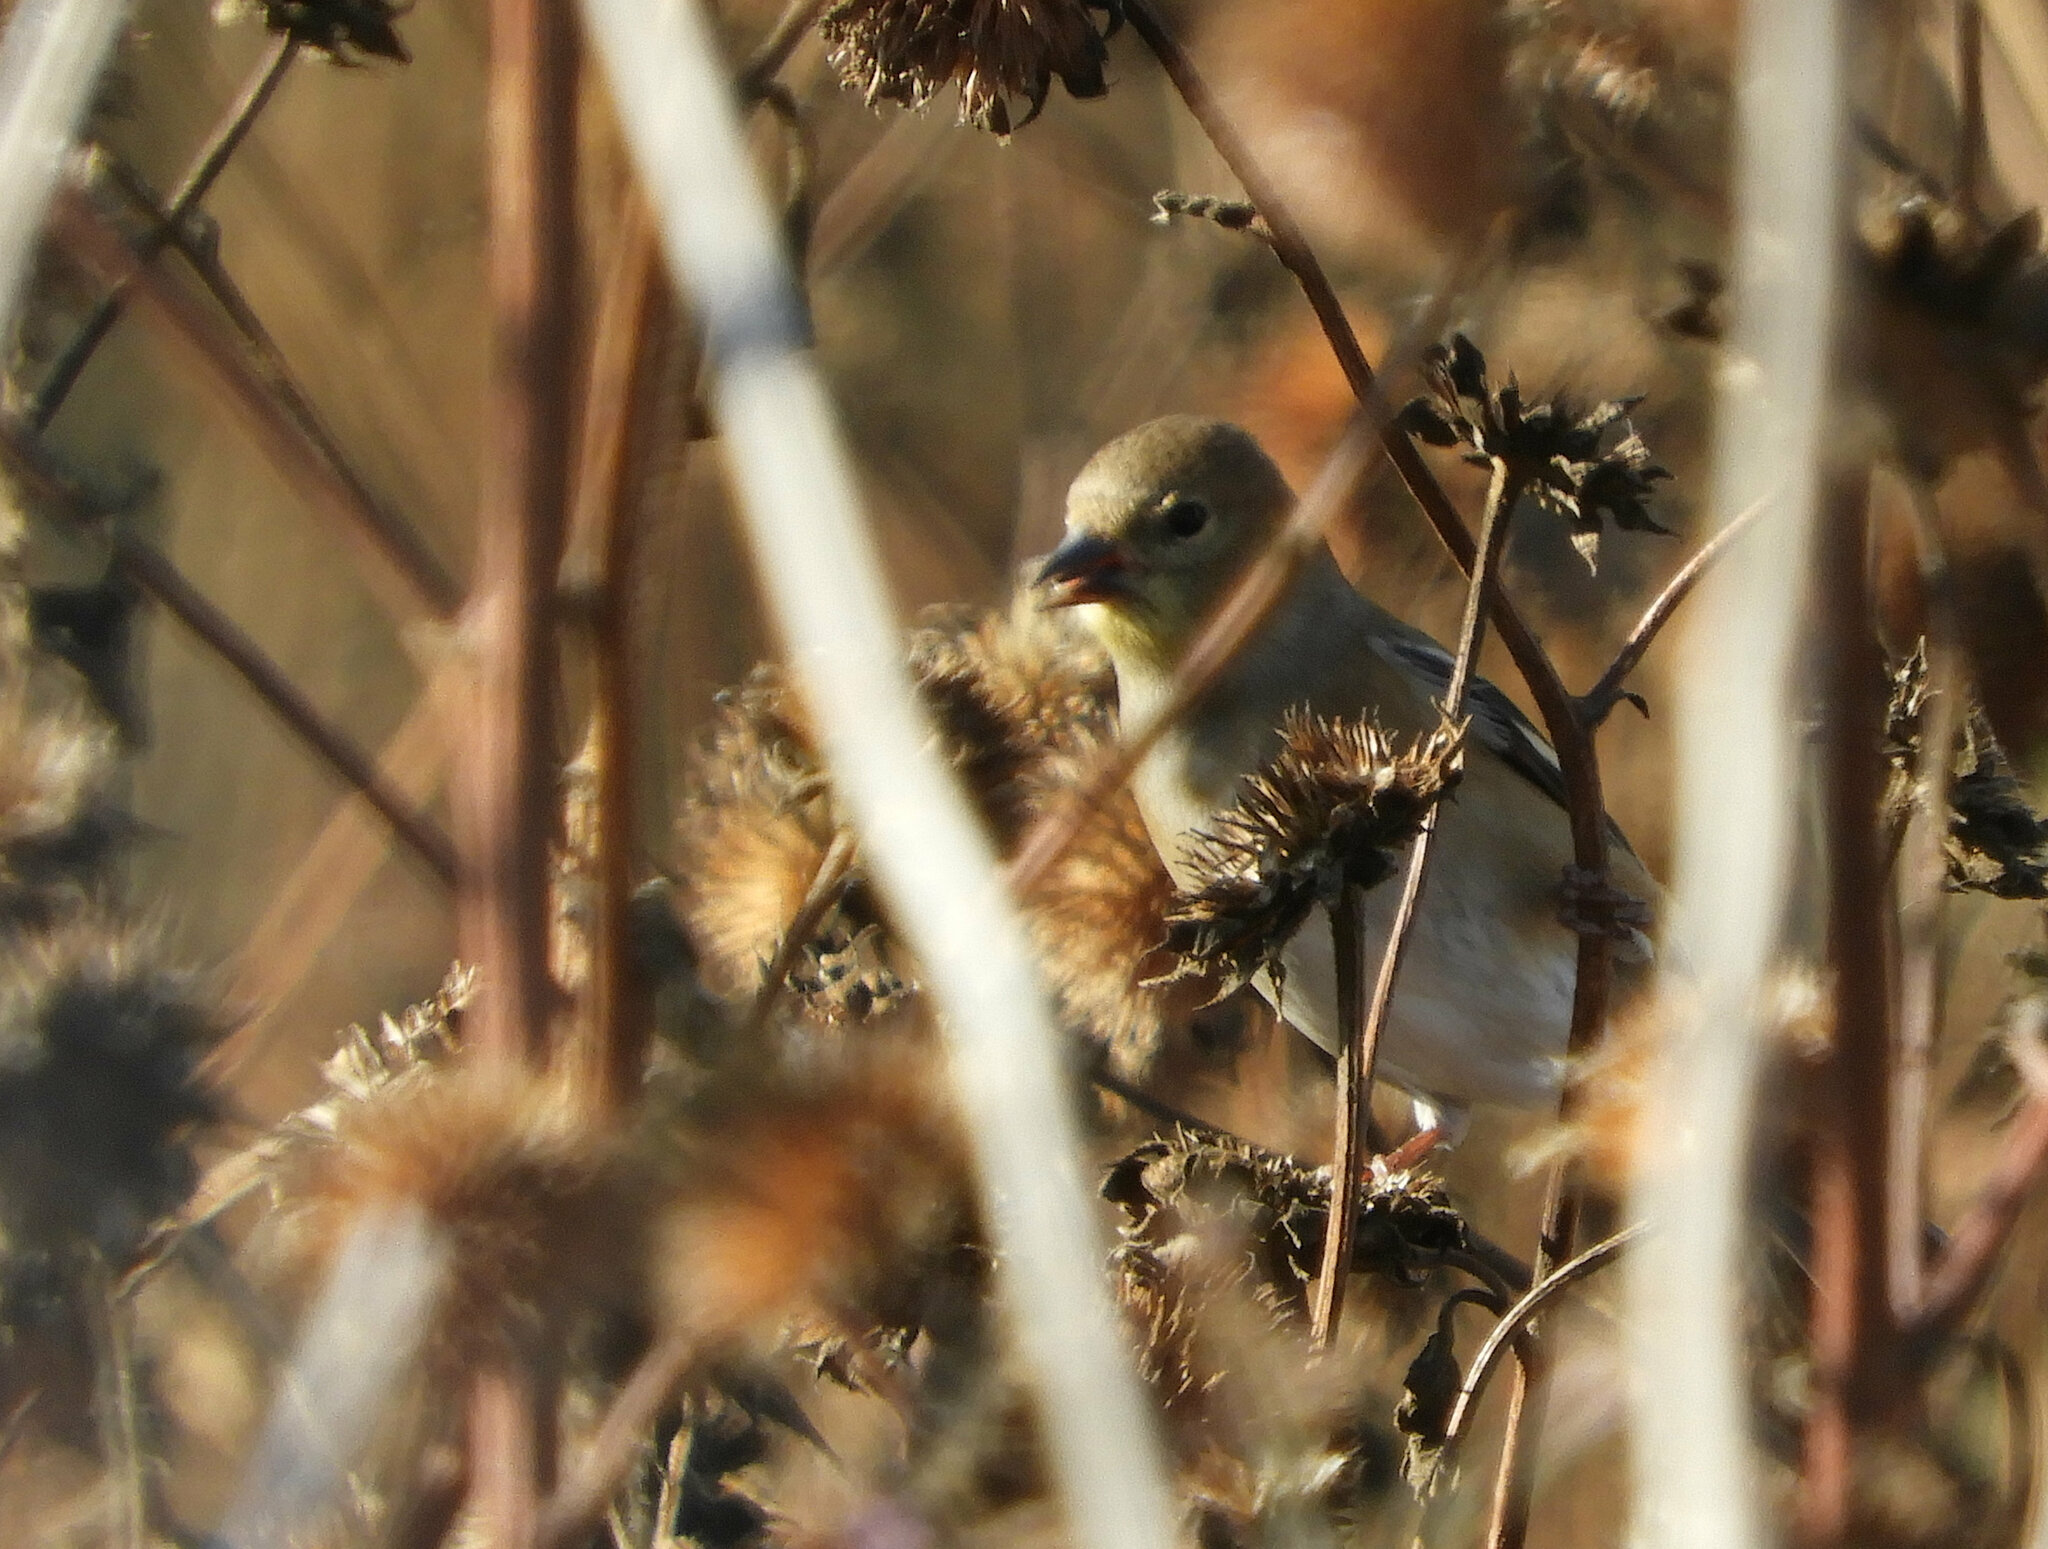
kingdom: Animalia
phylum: Chordata
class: Aves
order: Passeriformes
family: Fringillidae
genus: Spinus
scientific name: Spinus psaltria
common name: Lesser goldfinch
